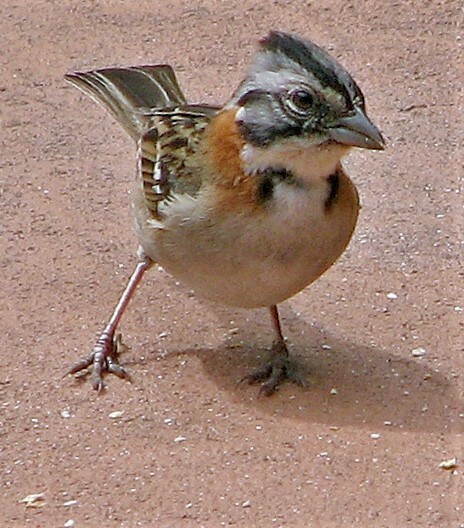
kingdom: Animalia
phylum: Chordata
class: Aves
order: Passeriformes
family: Passerellidae
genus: Zonotrichia
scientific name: Zonotrichia capensis
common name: Rufous-collared sparrow
